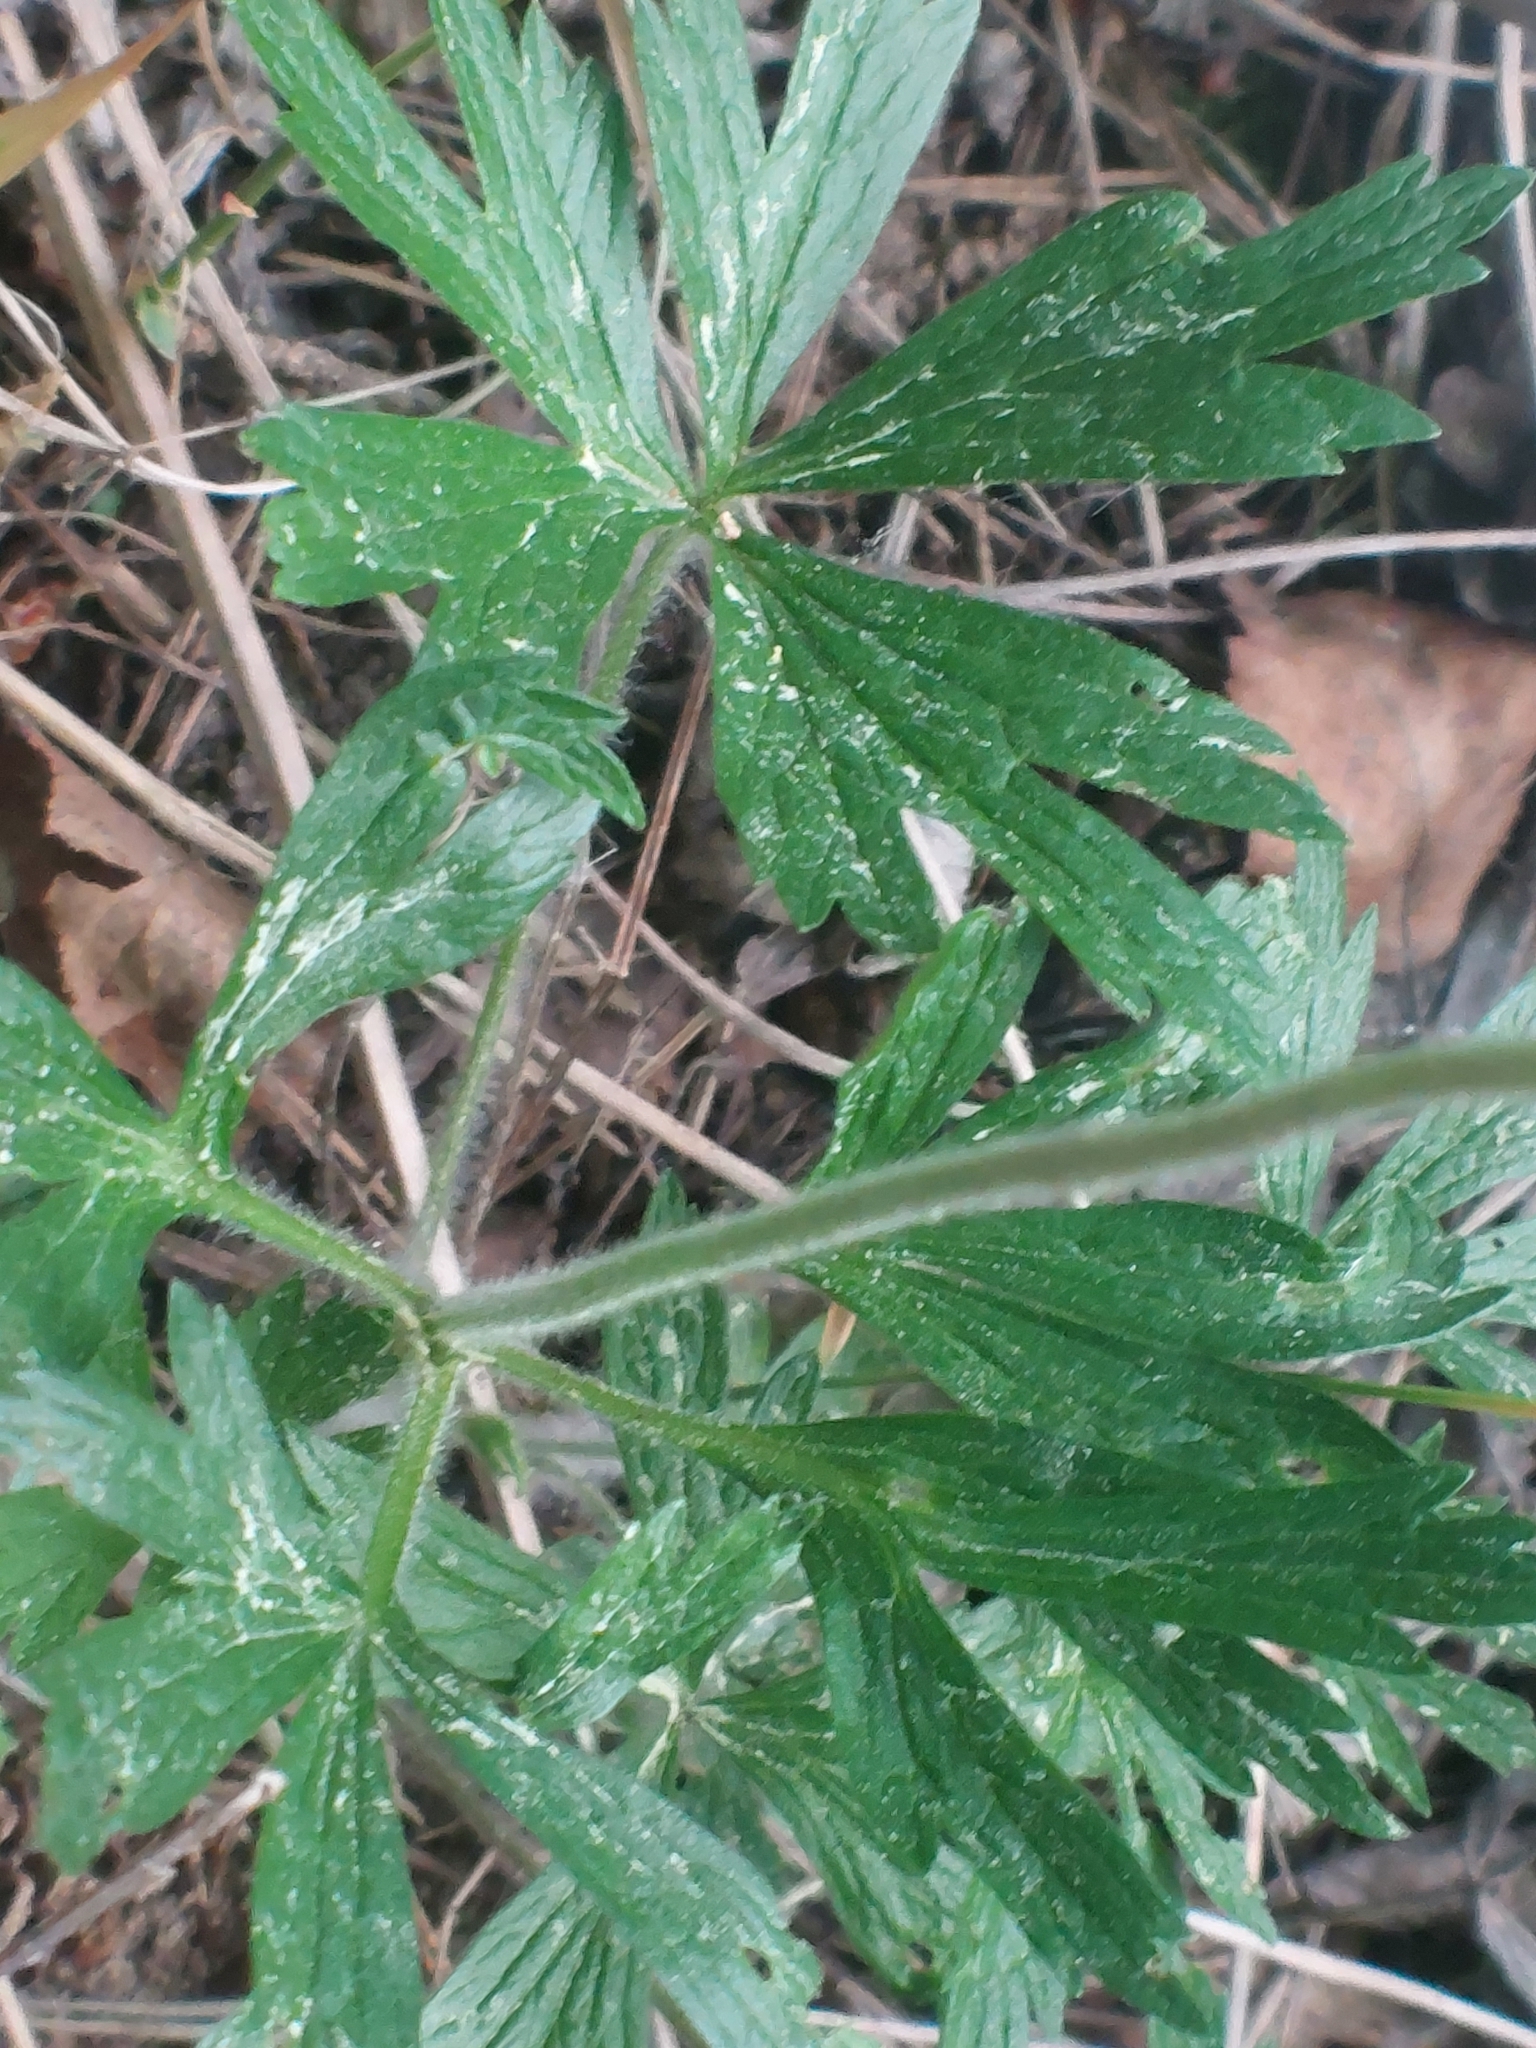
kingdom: Plantae
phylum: Tracheophyta
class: Magnoliopsida
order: Ranunculales
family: Ranunculaceae
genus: Anemone
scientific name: Anemone sylvestris
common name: Snowdrop anemone
